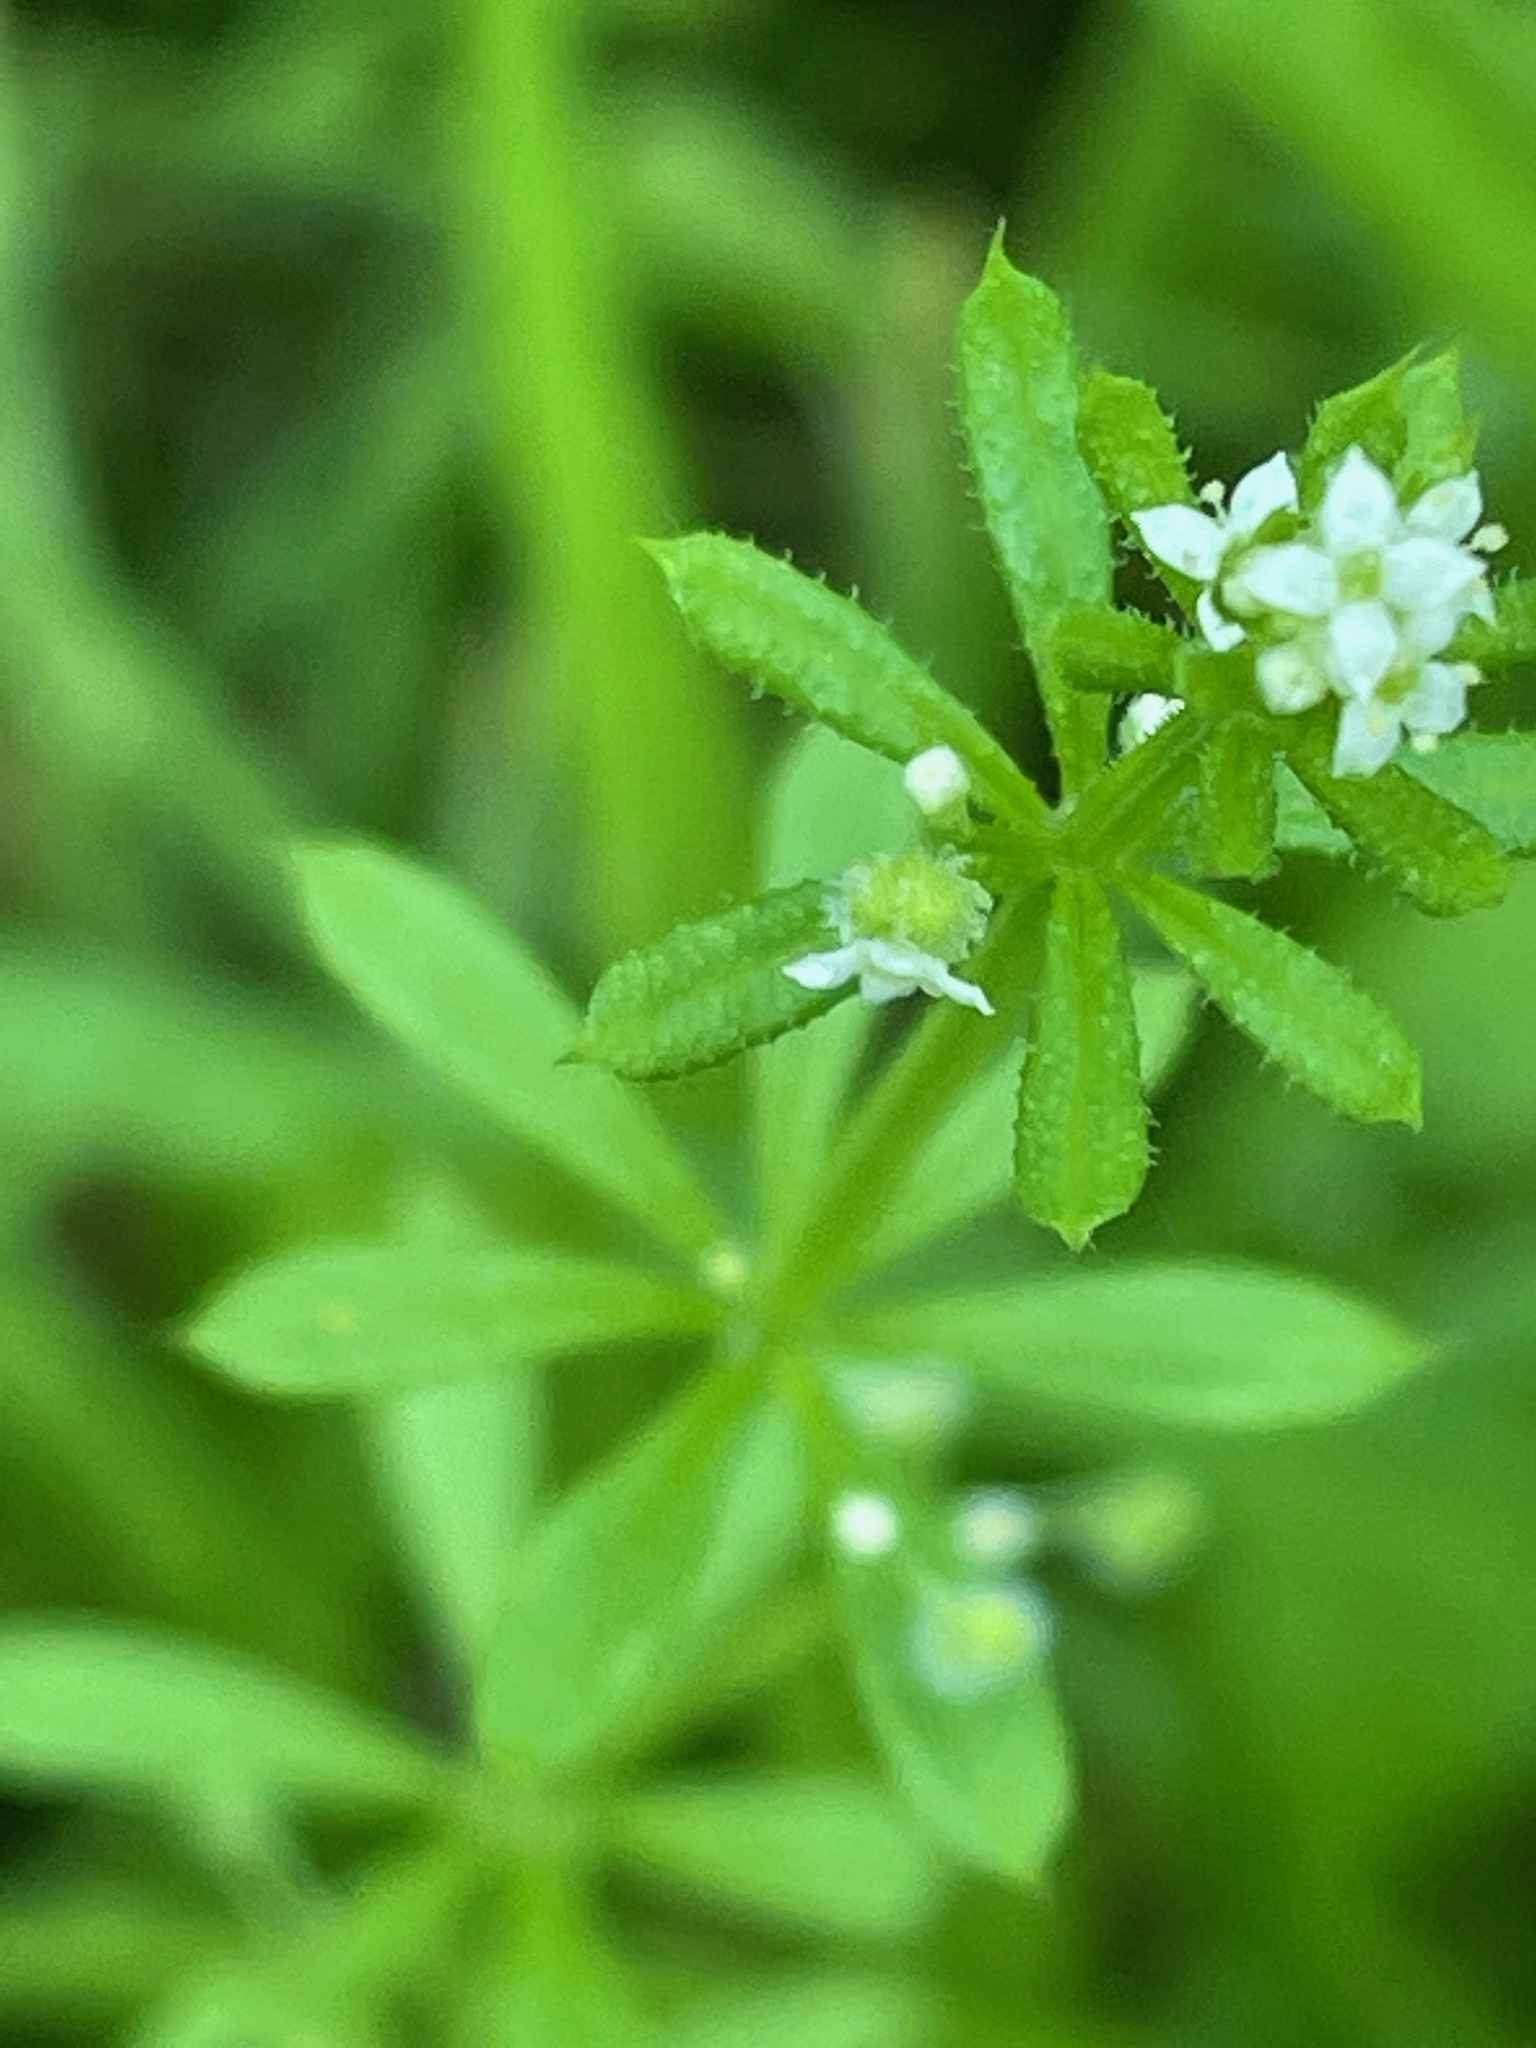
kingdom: Plantae
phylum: Tracheophyta
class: Magnoliopsida
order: Gentianales
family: Rubiaceae
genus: Galium
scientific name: Galium aparine
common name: Cleavers
